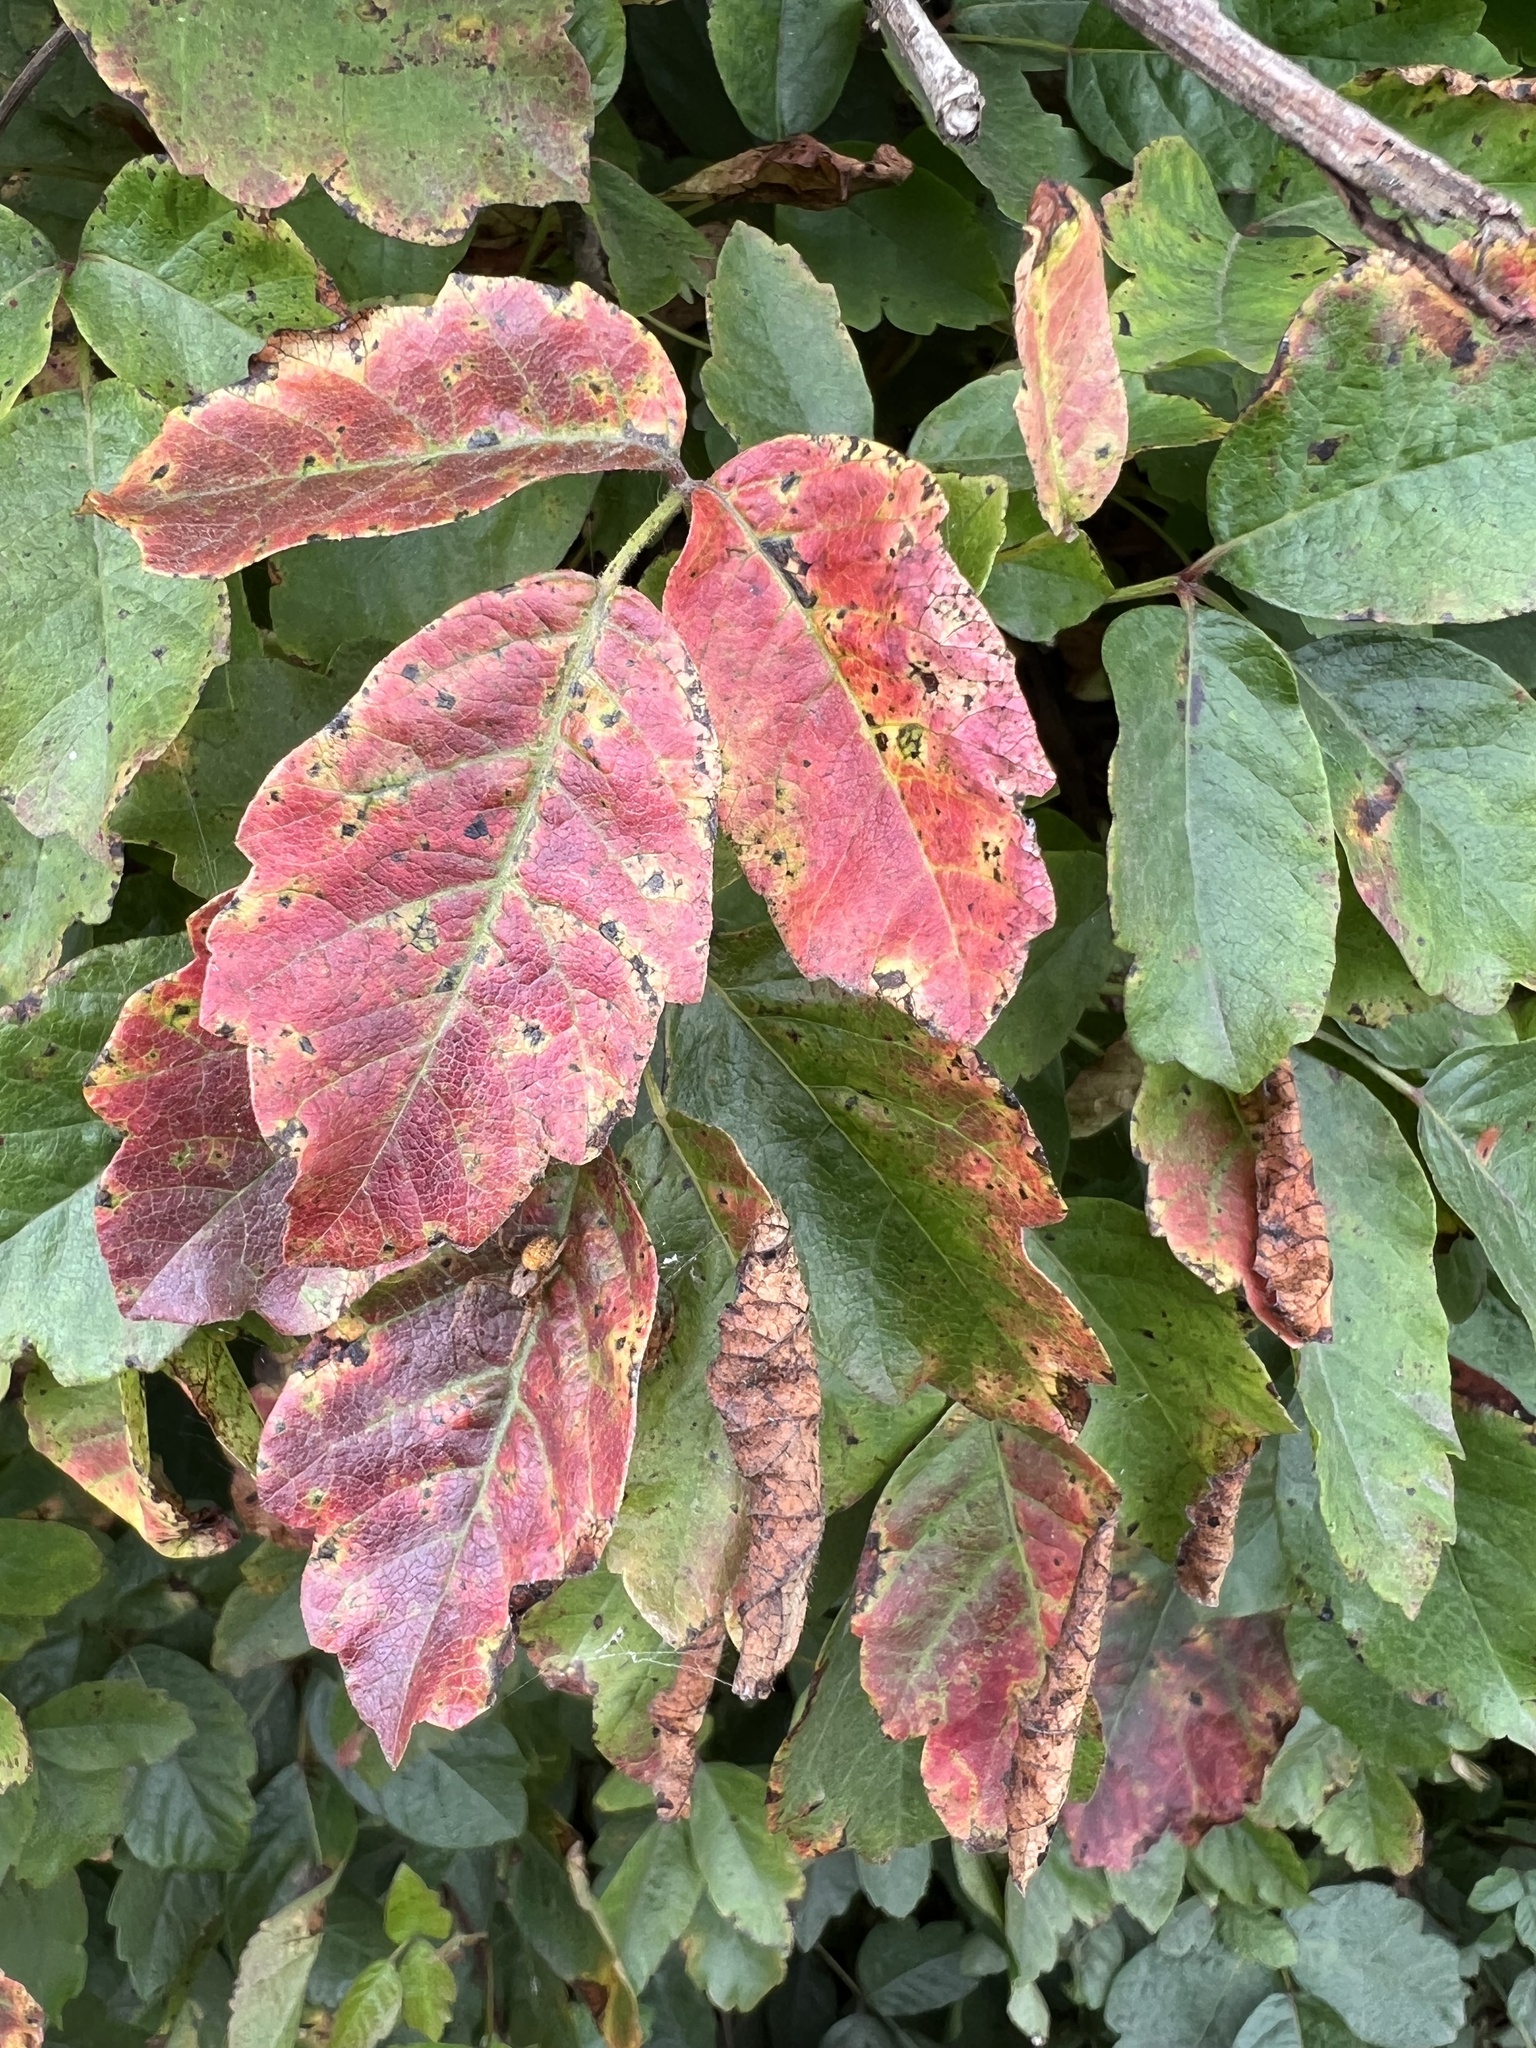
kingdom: Plantae
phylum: Tracheophyta
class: Magnoliopsida
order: Sapindales
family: Anacardiaceae
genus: Toxicodendron
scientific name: Toxicodendron diversilobum
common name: Pacific poison-oak
